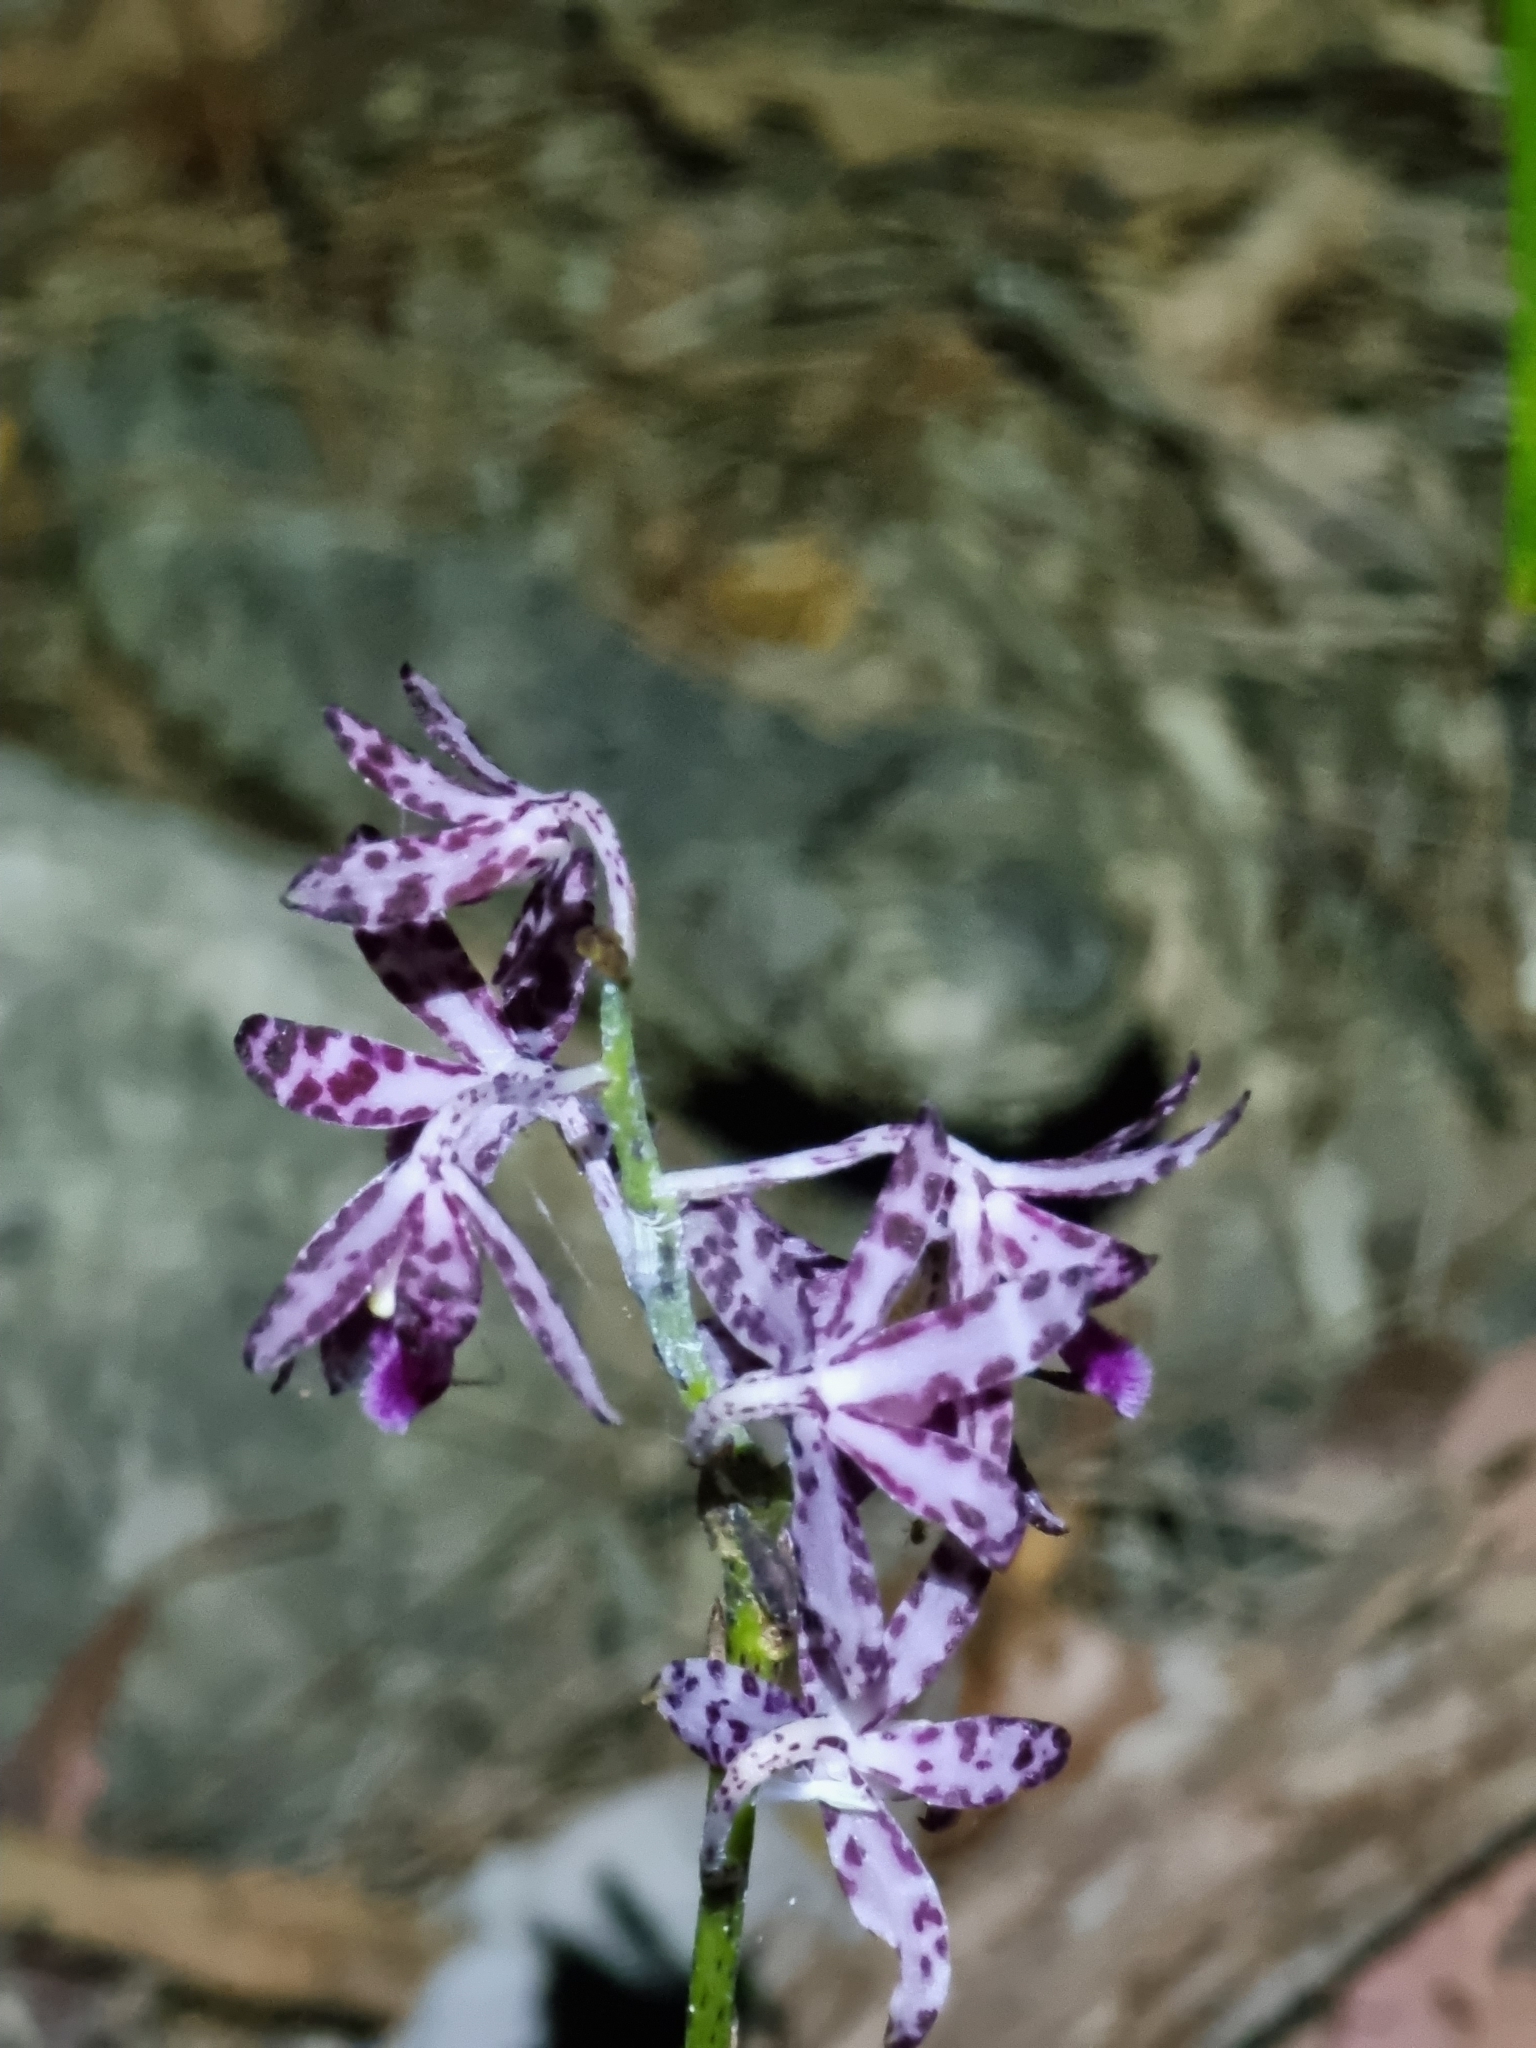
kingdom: Plantae
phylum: Tracheophyta
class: Liliopsida
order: Asparagales
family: Orchidaceae
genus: Dipodium
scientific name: Dipodium variegatum
